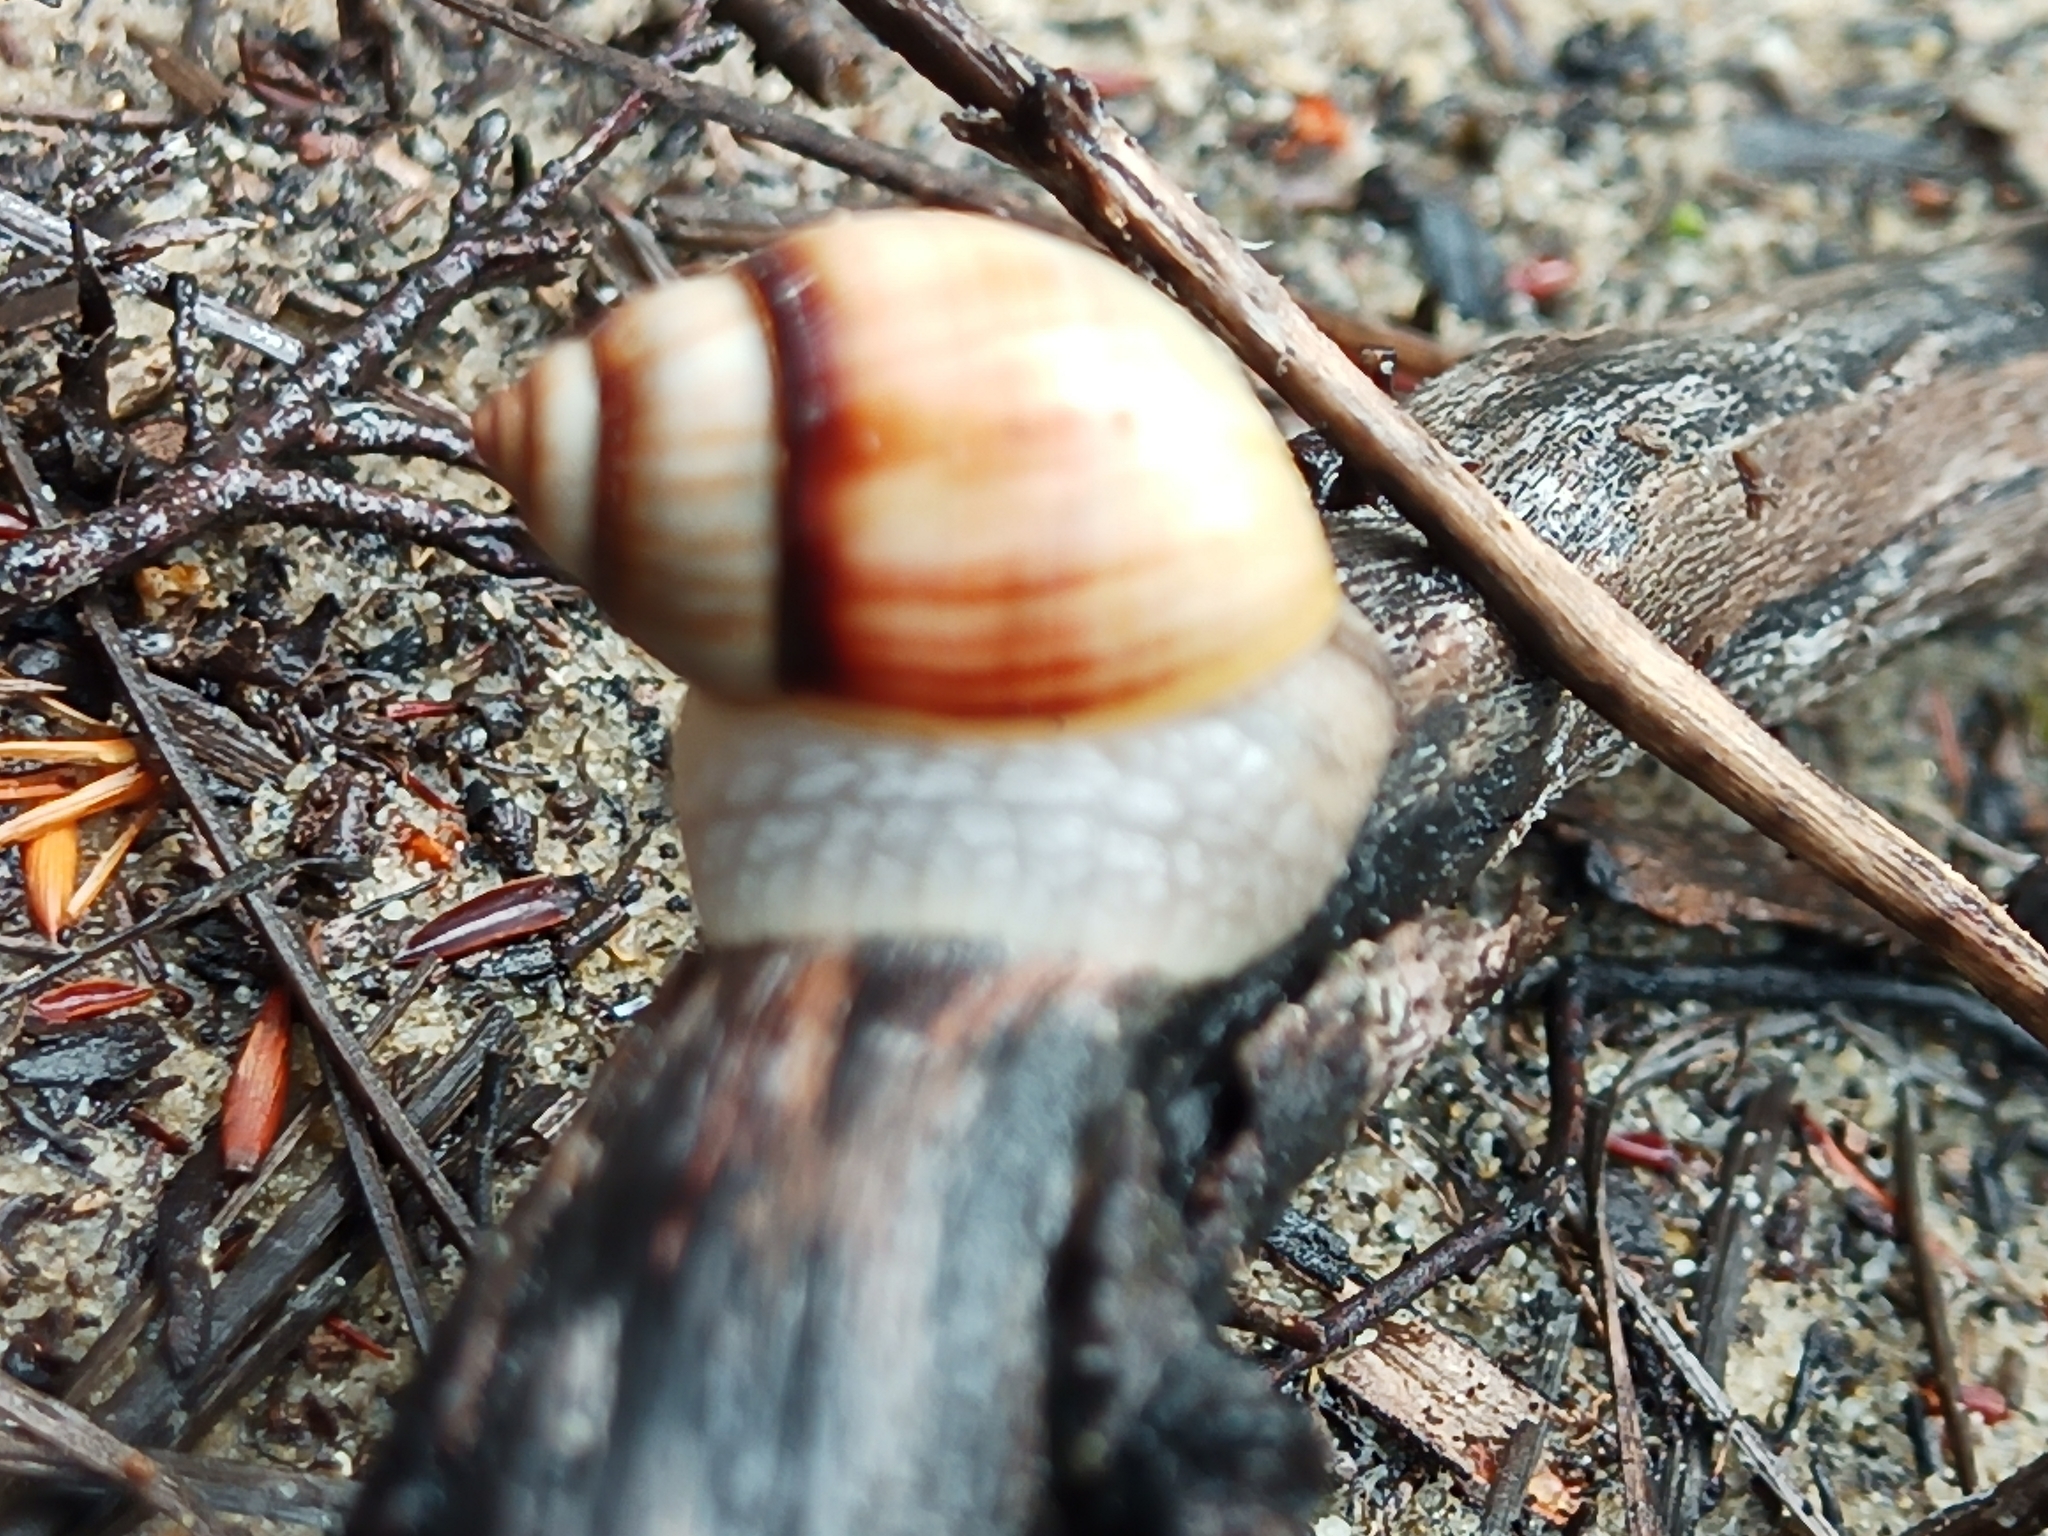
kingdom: Animalia
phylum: Mollusca
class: Gastropoda
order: Stylommatophora
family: Bothriembryontidae
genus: Bothriembryon
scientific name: Bothriembryon melo
